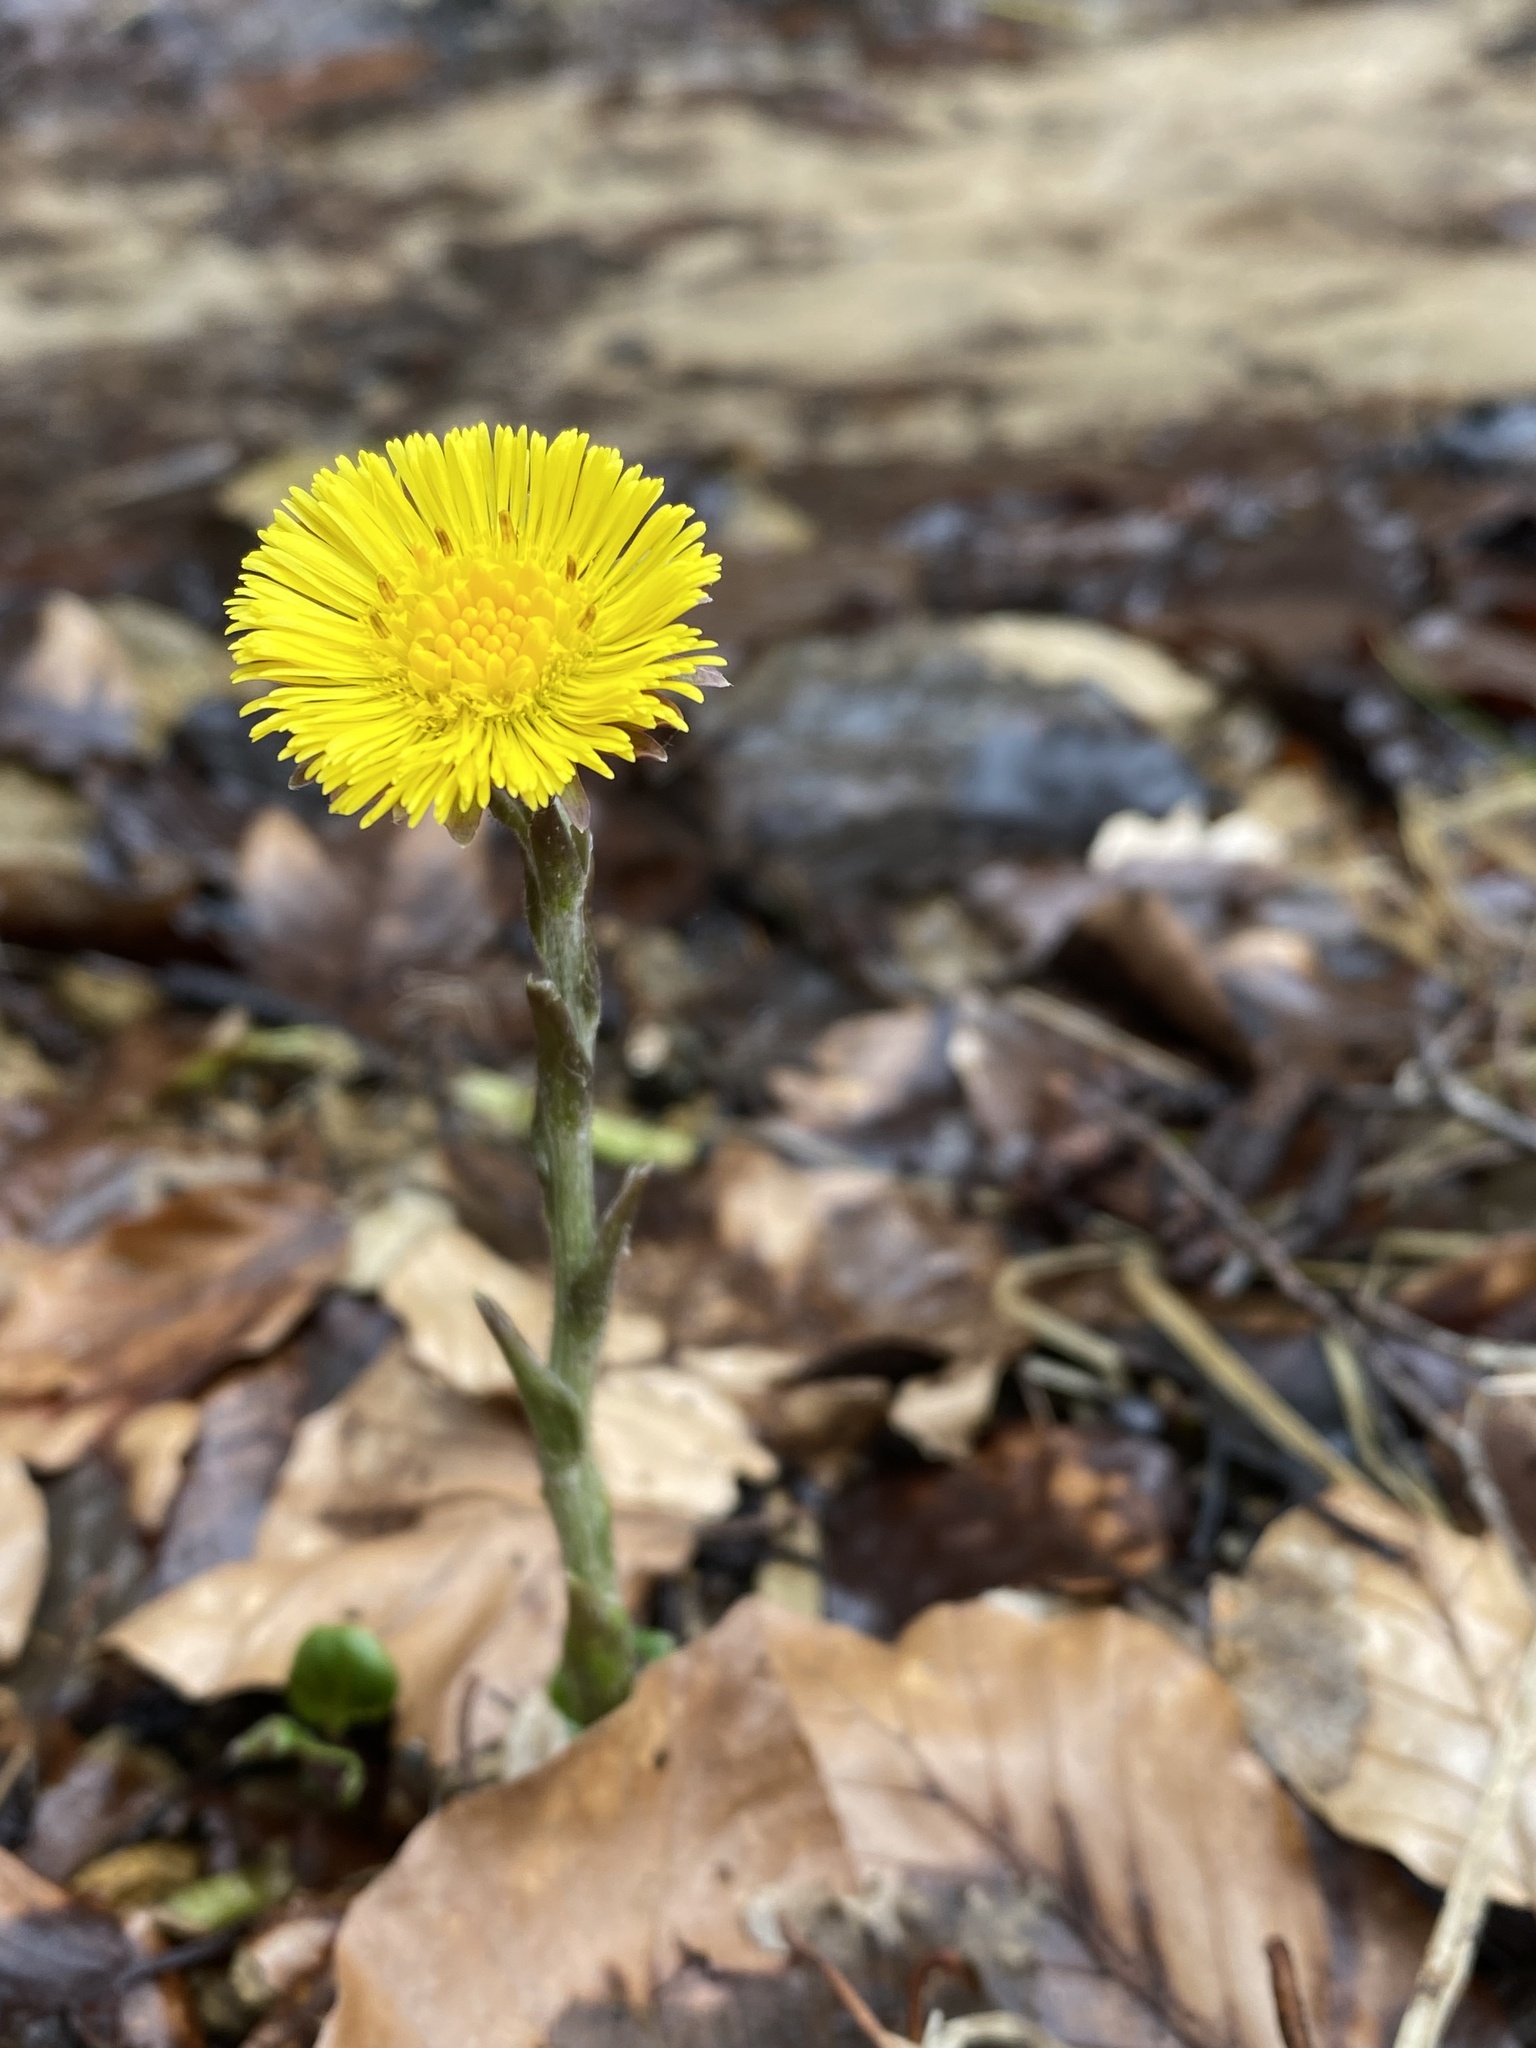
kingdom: Plantae
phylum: Tracheophyta
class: Magnoliopsida
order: Asterales
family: Asteraceae
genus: Tussilago
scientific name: Tussilago farfara
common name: Coltsfoot
